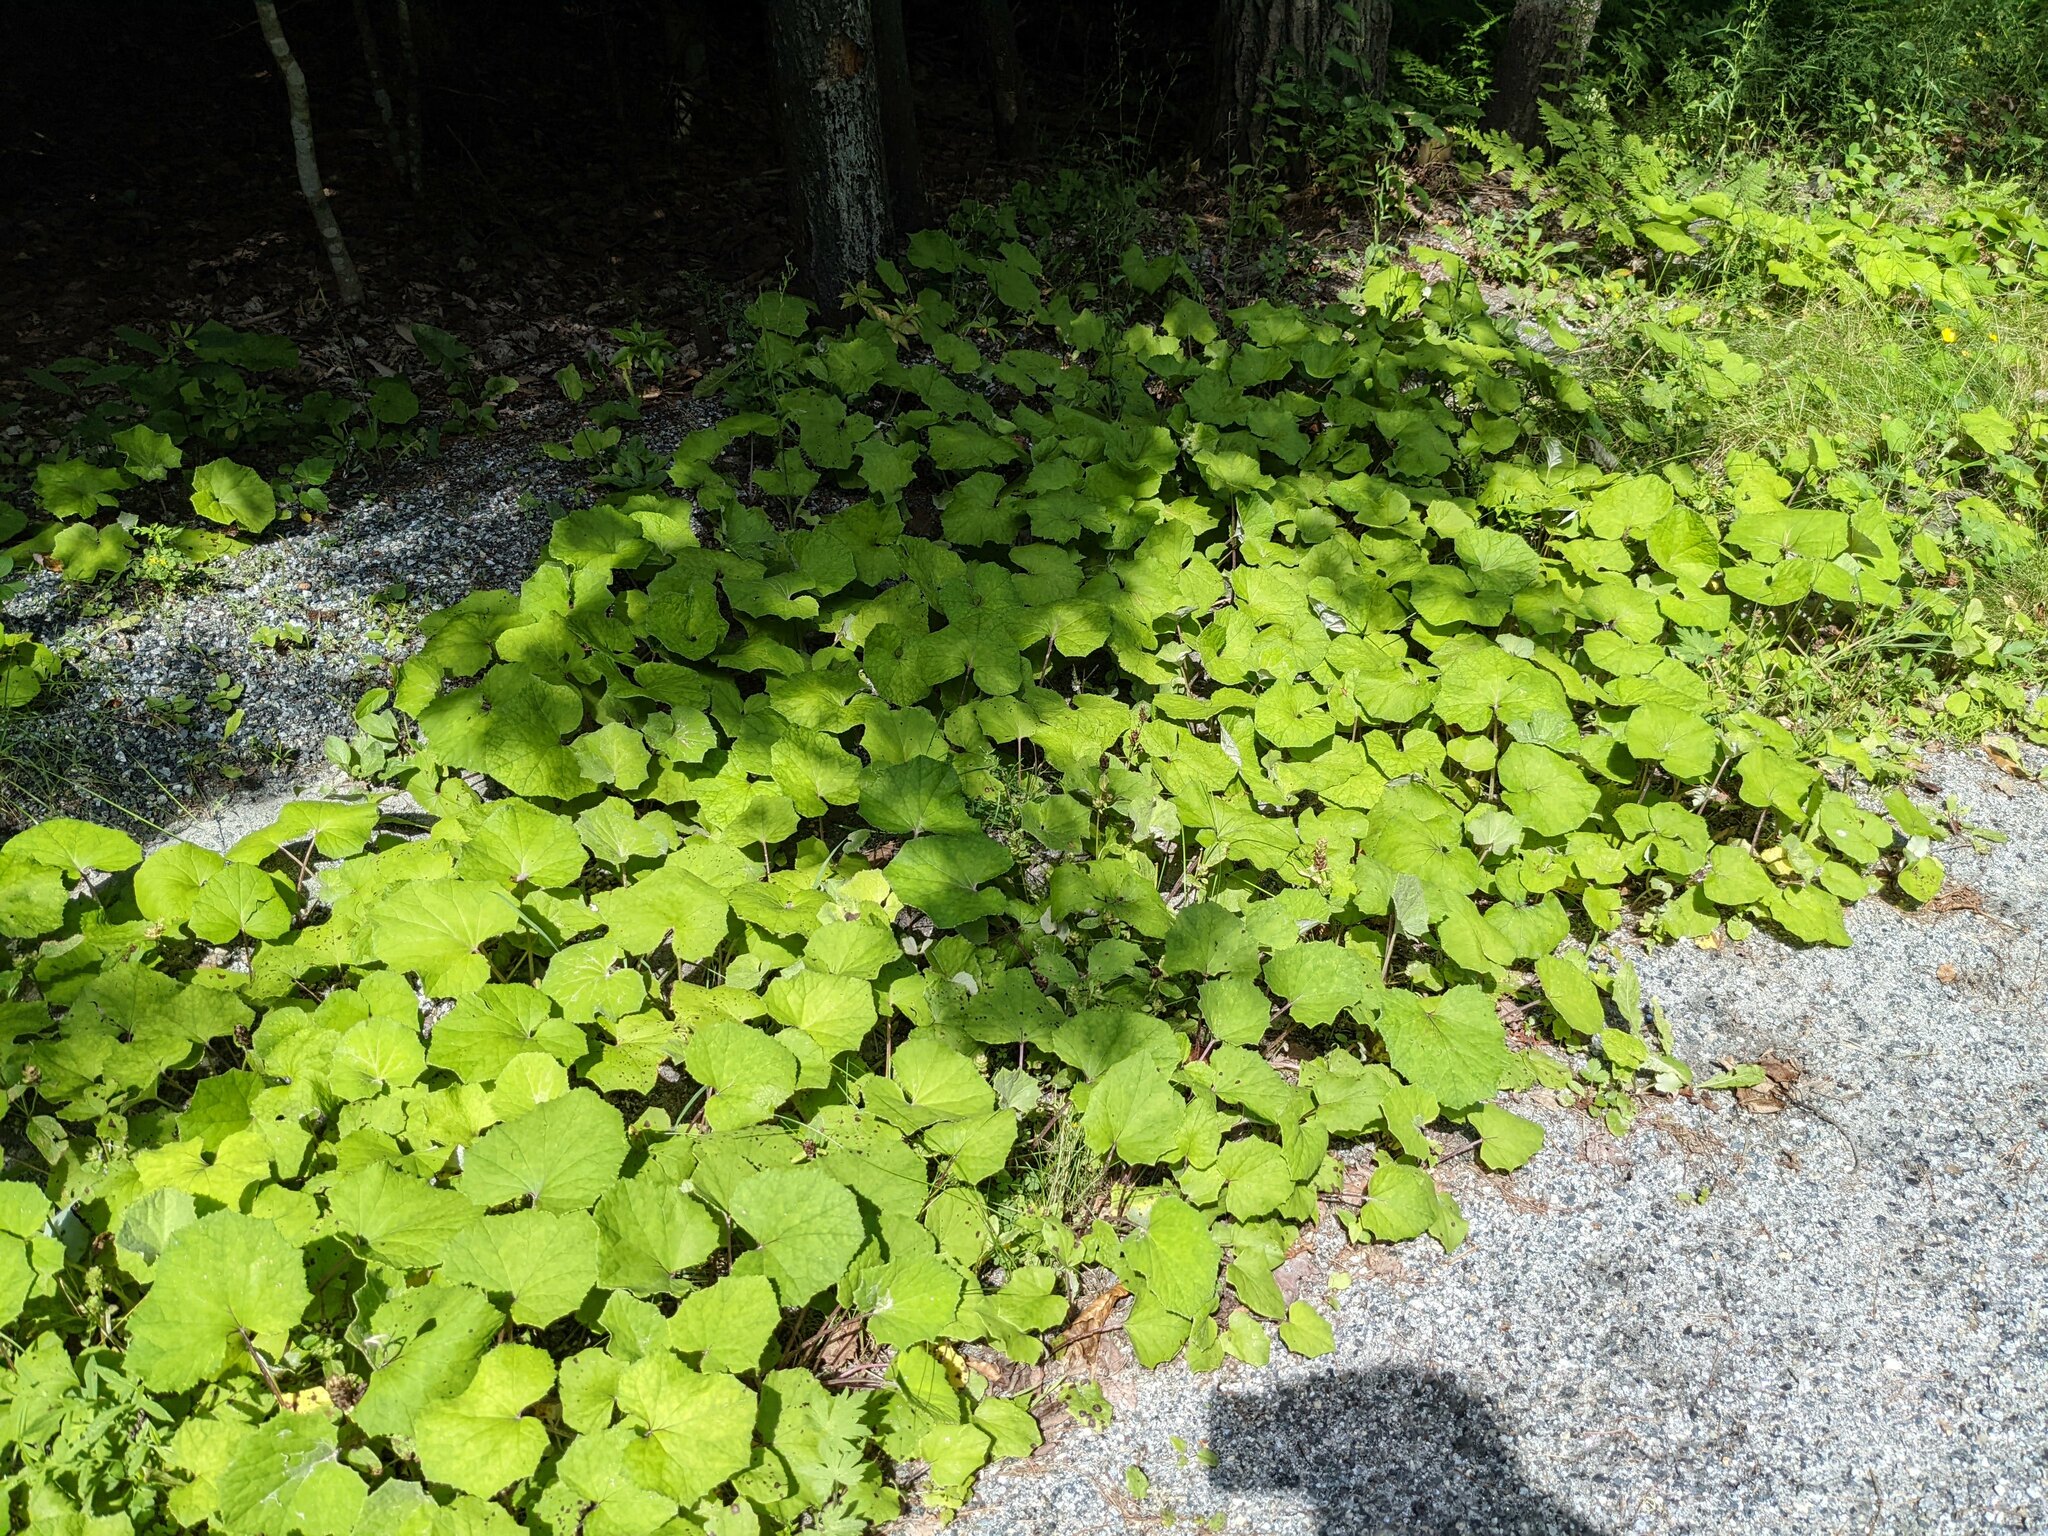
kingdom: Plantae
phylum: Tracheophyta
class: Magnoliopsida
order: Asterales
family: Asteraceae
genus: Tussilago
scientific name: Tussilago farfara
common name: Coltsfoot
